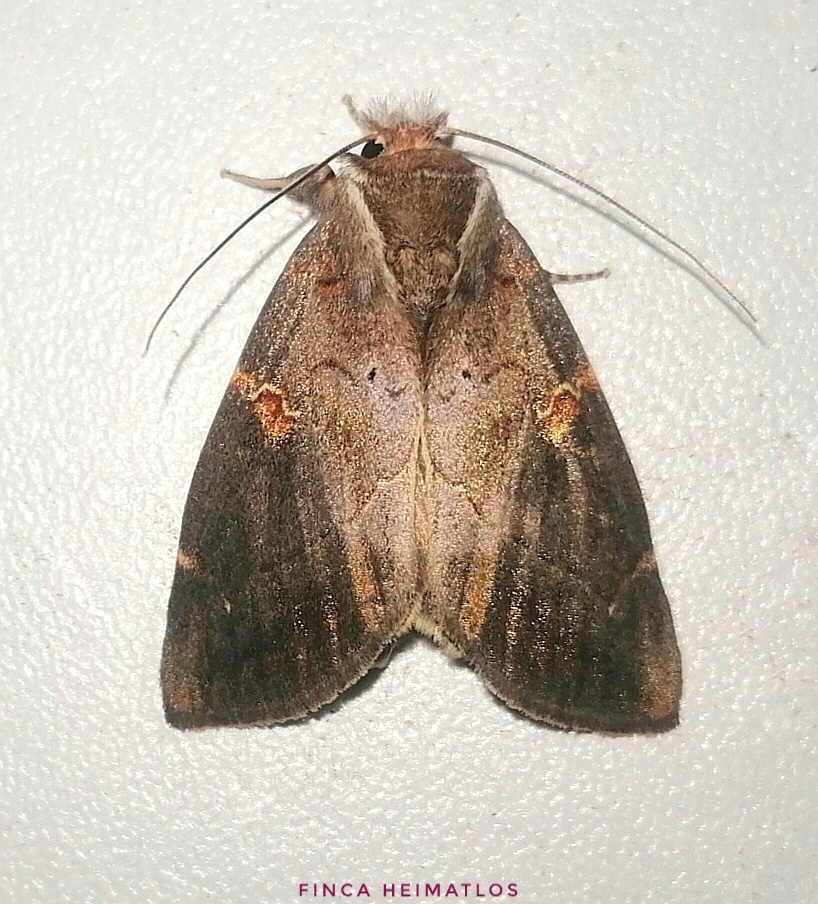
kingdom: Animalia
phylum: Arthropoda
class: Insecta
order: Lepidoptera
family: Notodontidae
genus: Hemiceras
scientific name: Hemiceras angulinea
